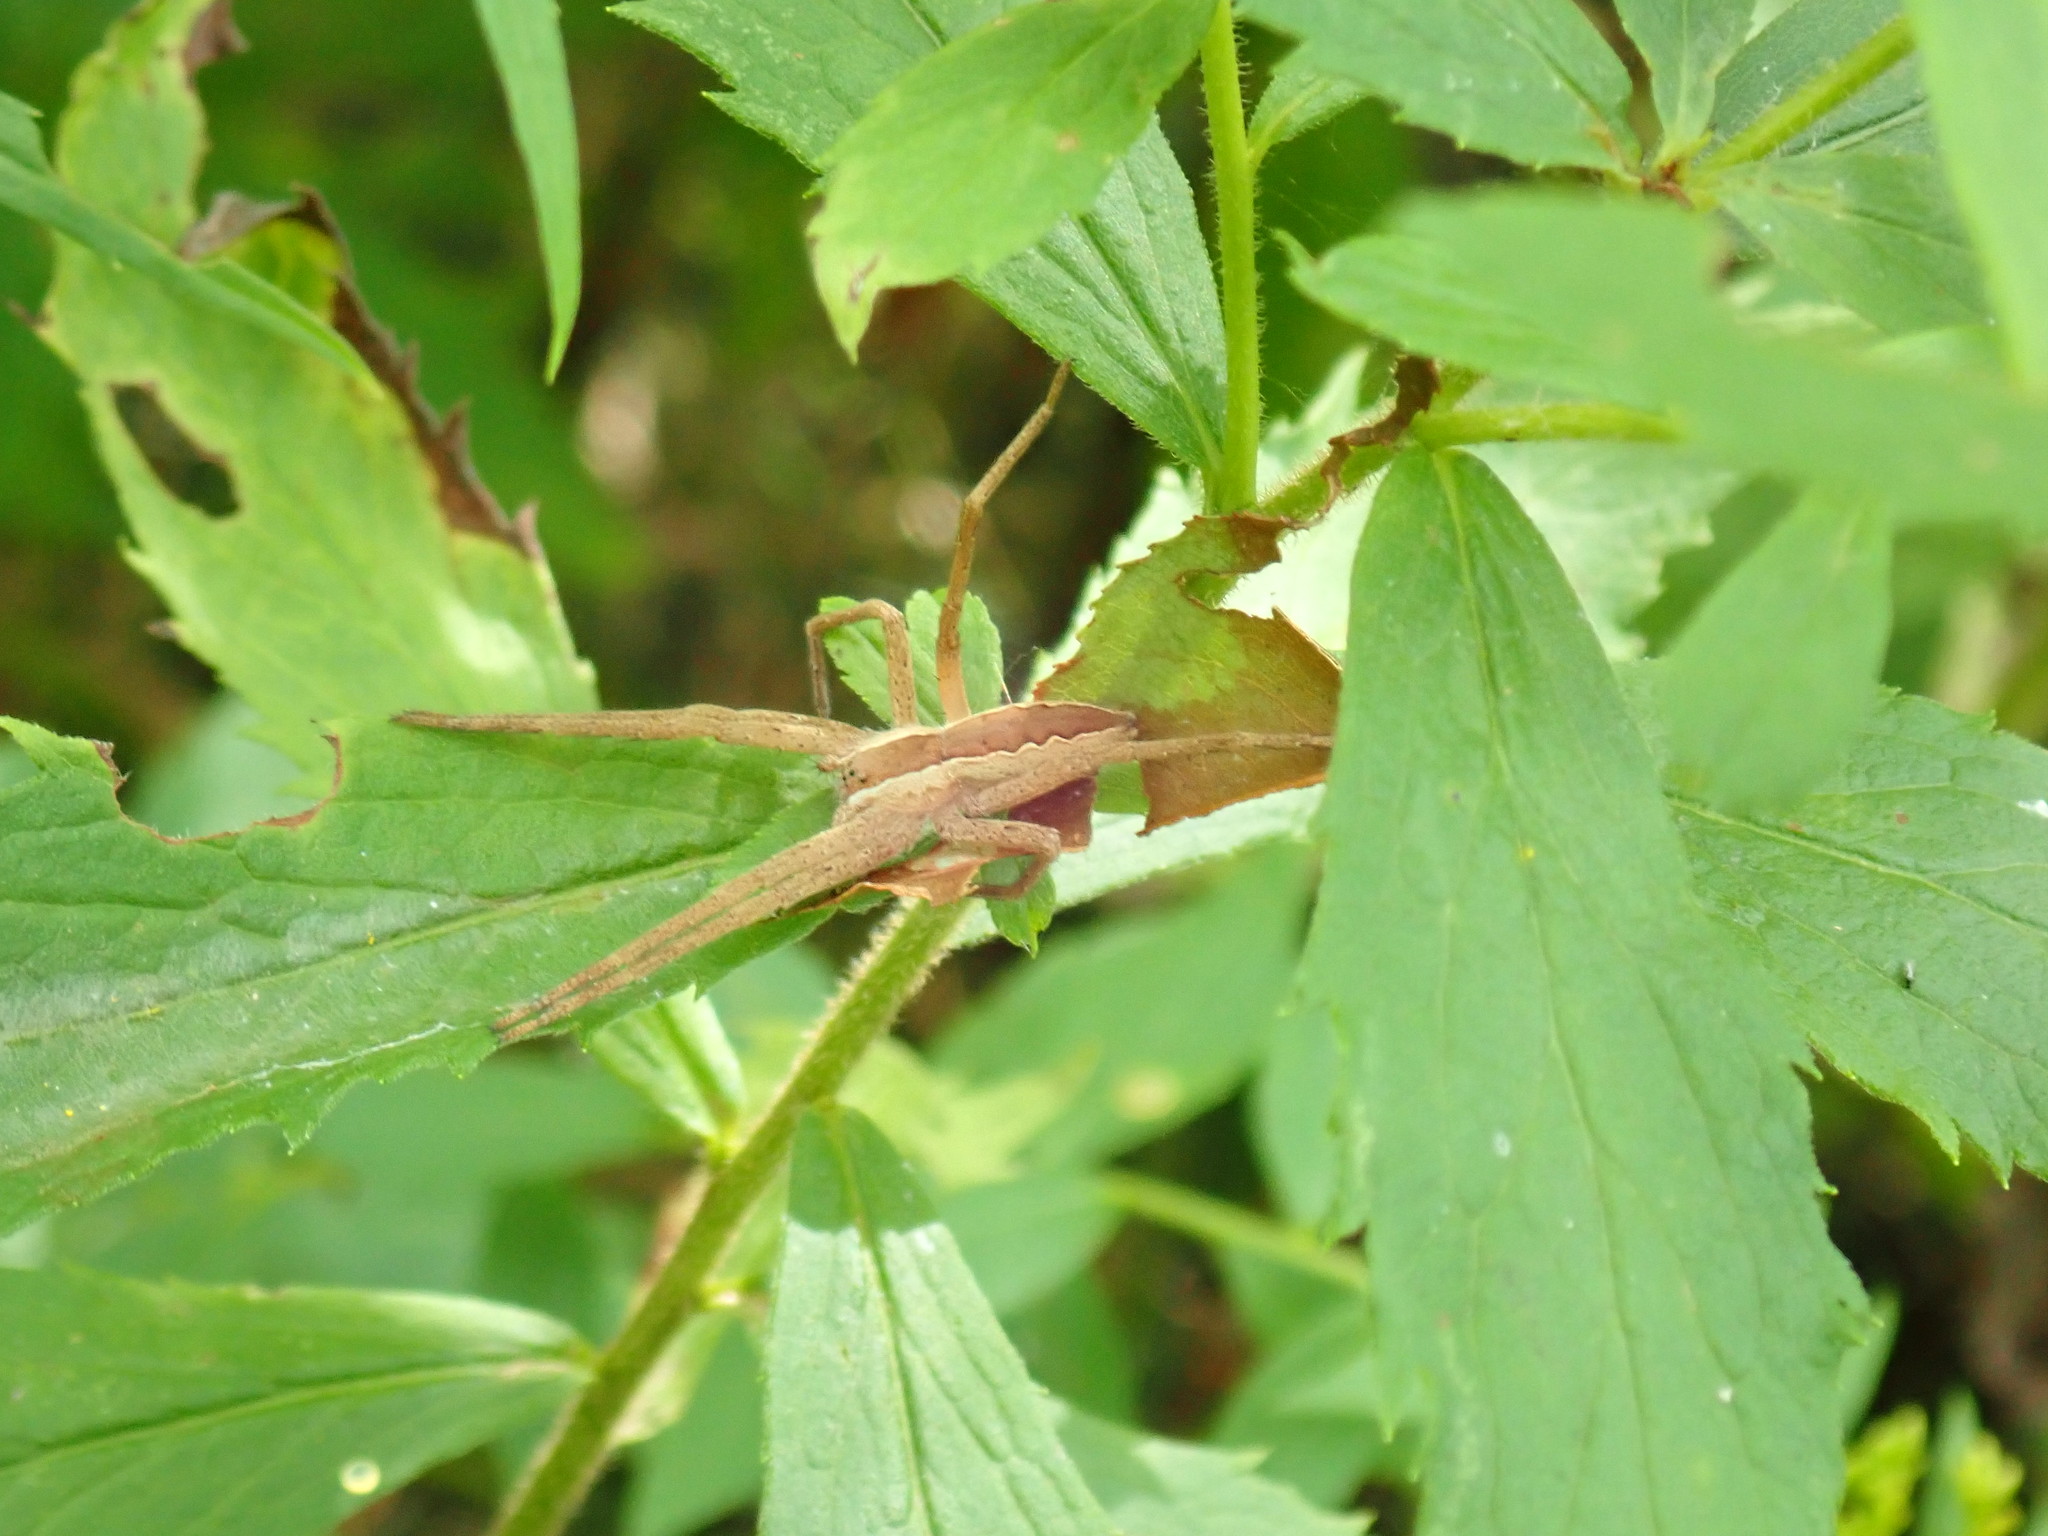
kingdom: Animalia
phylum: Arthropoda
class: Arachnida
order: Araneae
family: Pisauridae
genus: Pisaurina
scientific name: Pisaurina mira
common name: American nursery web spider
